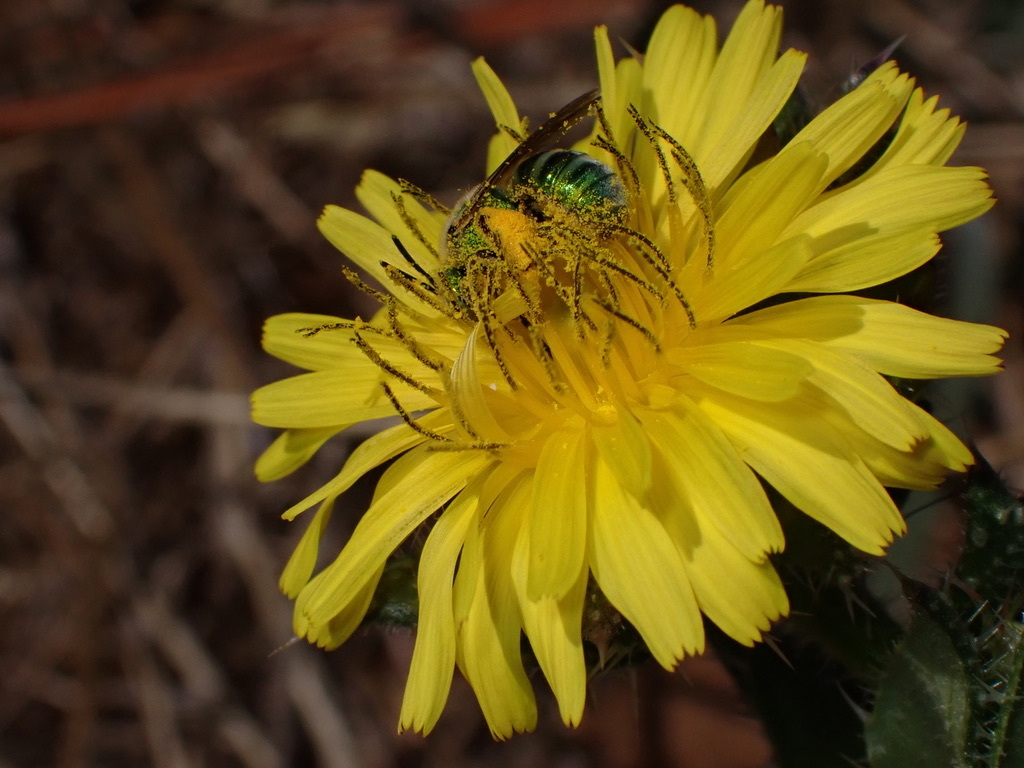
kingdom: Animalia
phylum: Arthropoda
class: Insecta
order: Hymenoptera
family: Halictidae
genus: Agapostemon
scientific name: Agapostemon texanus
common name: Texas striped sweat bee
